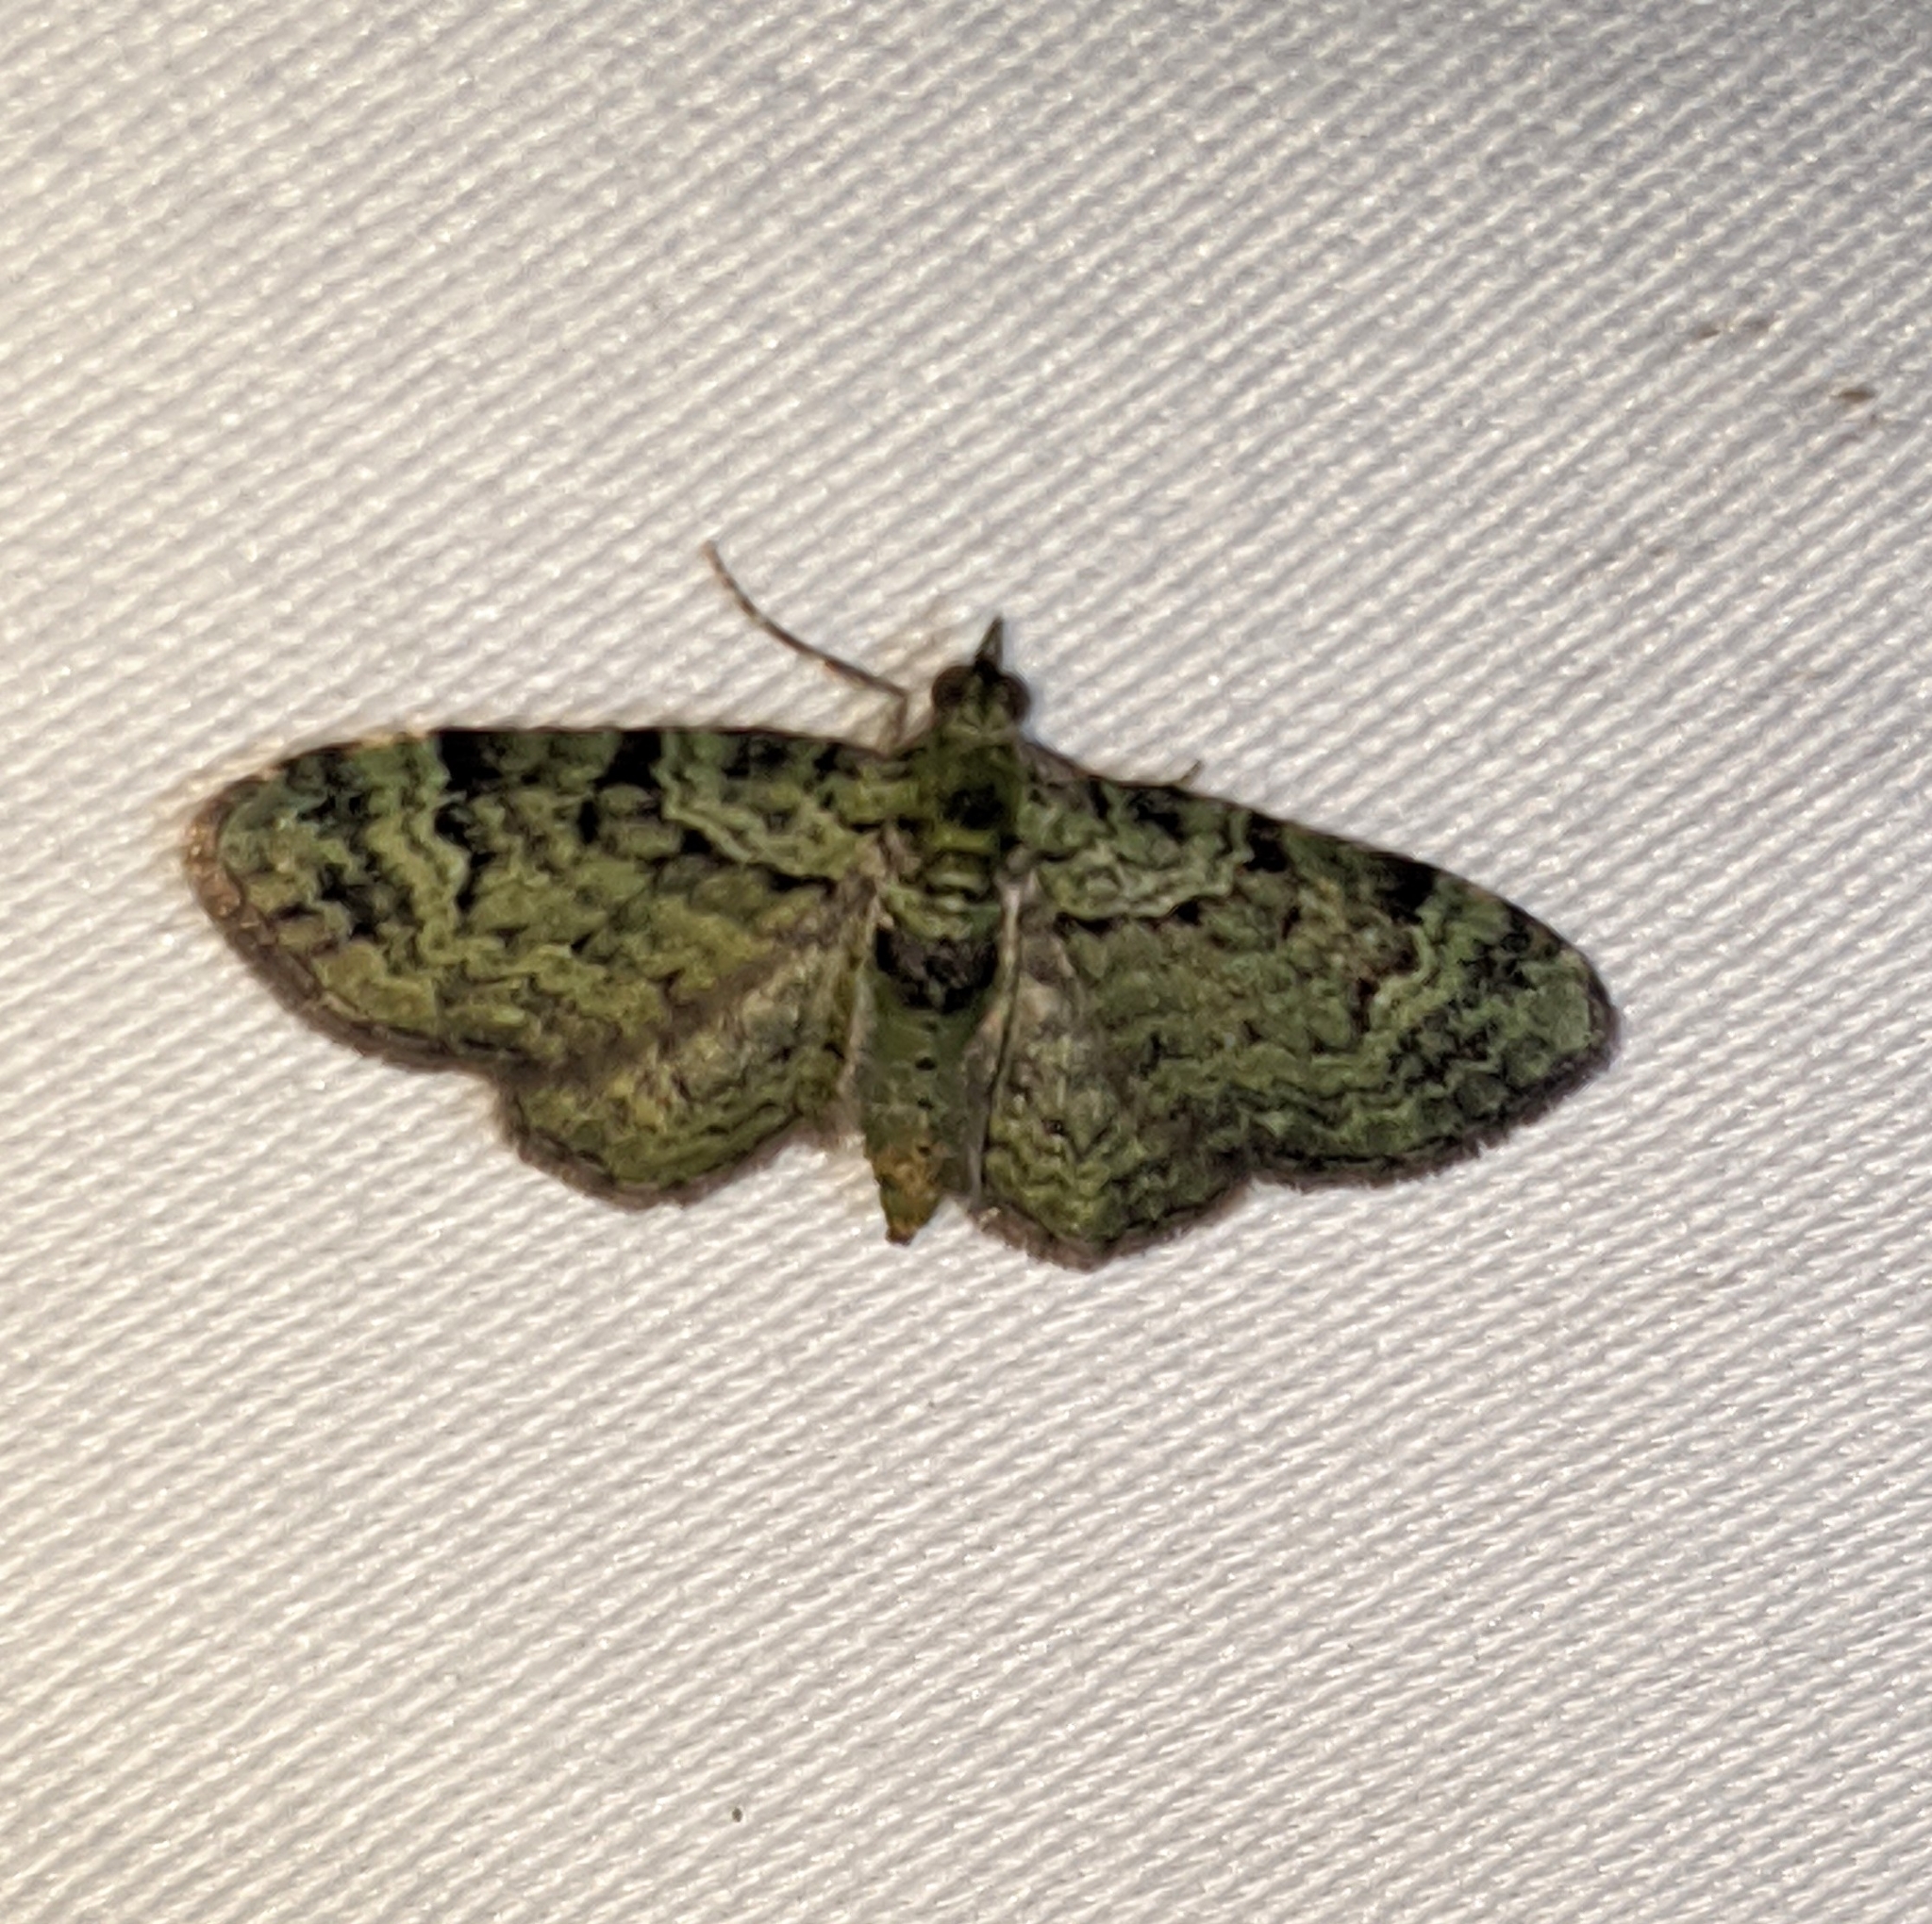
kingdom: Animalia
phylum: Arthropoda
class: Insecta
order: Lepidoptera
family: Geometridae
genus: Pasiphila
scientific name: Pasiphila rectangulata
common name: Green pug
